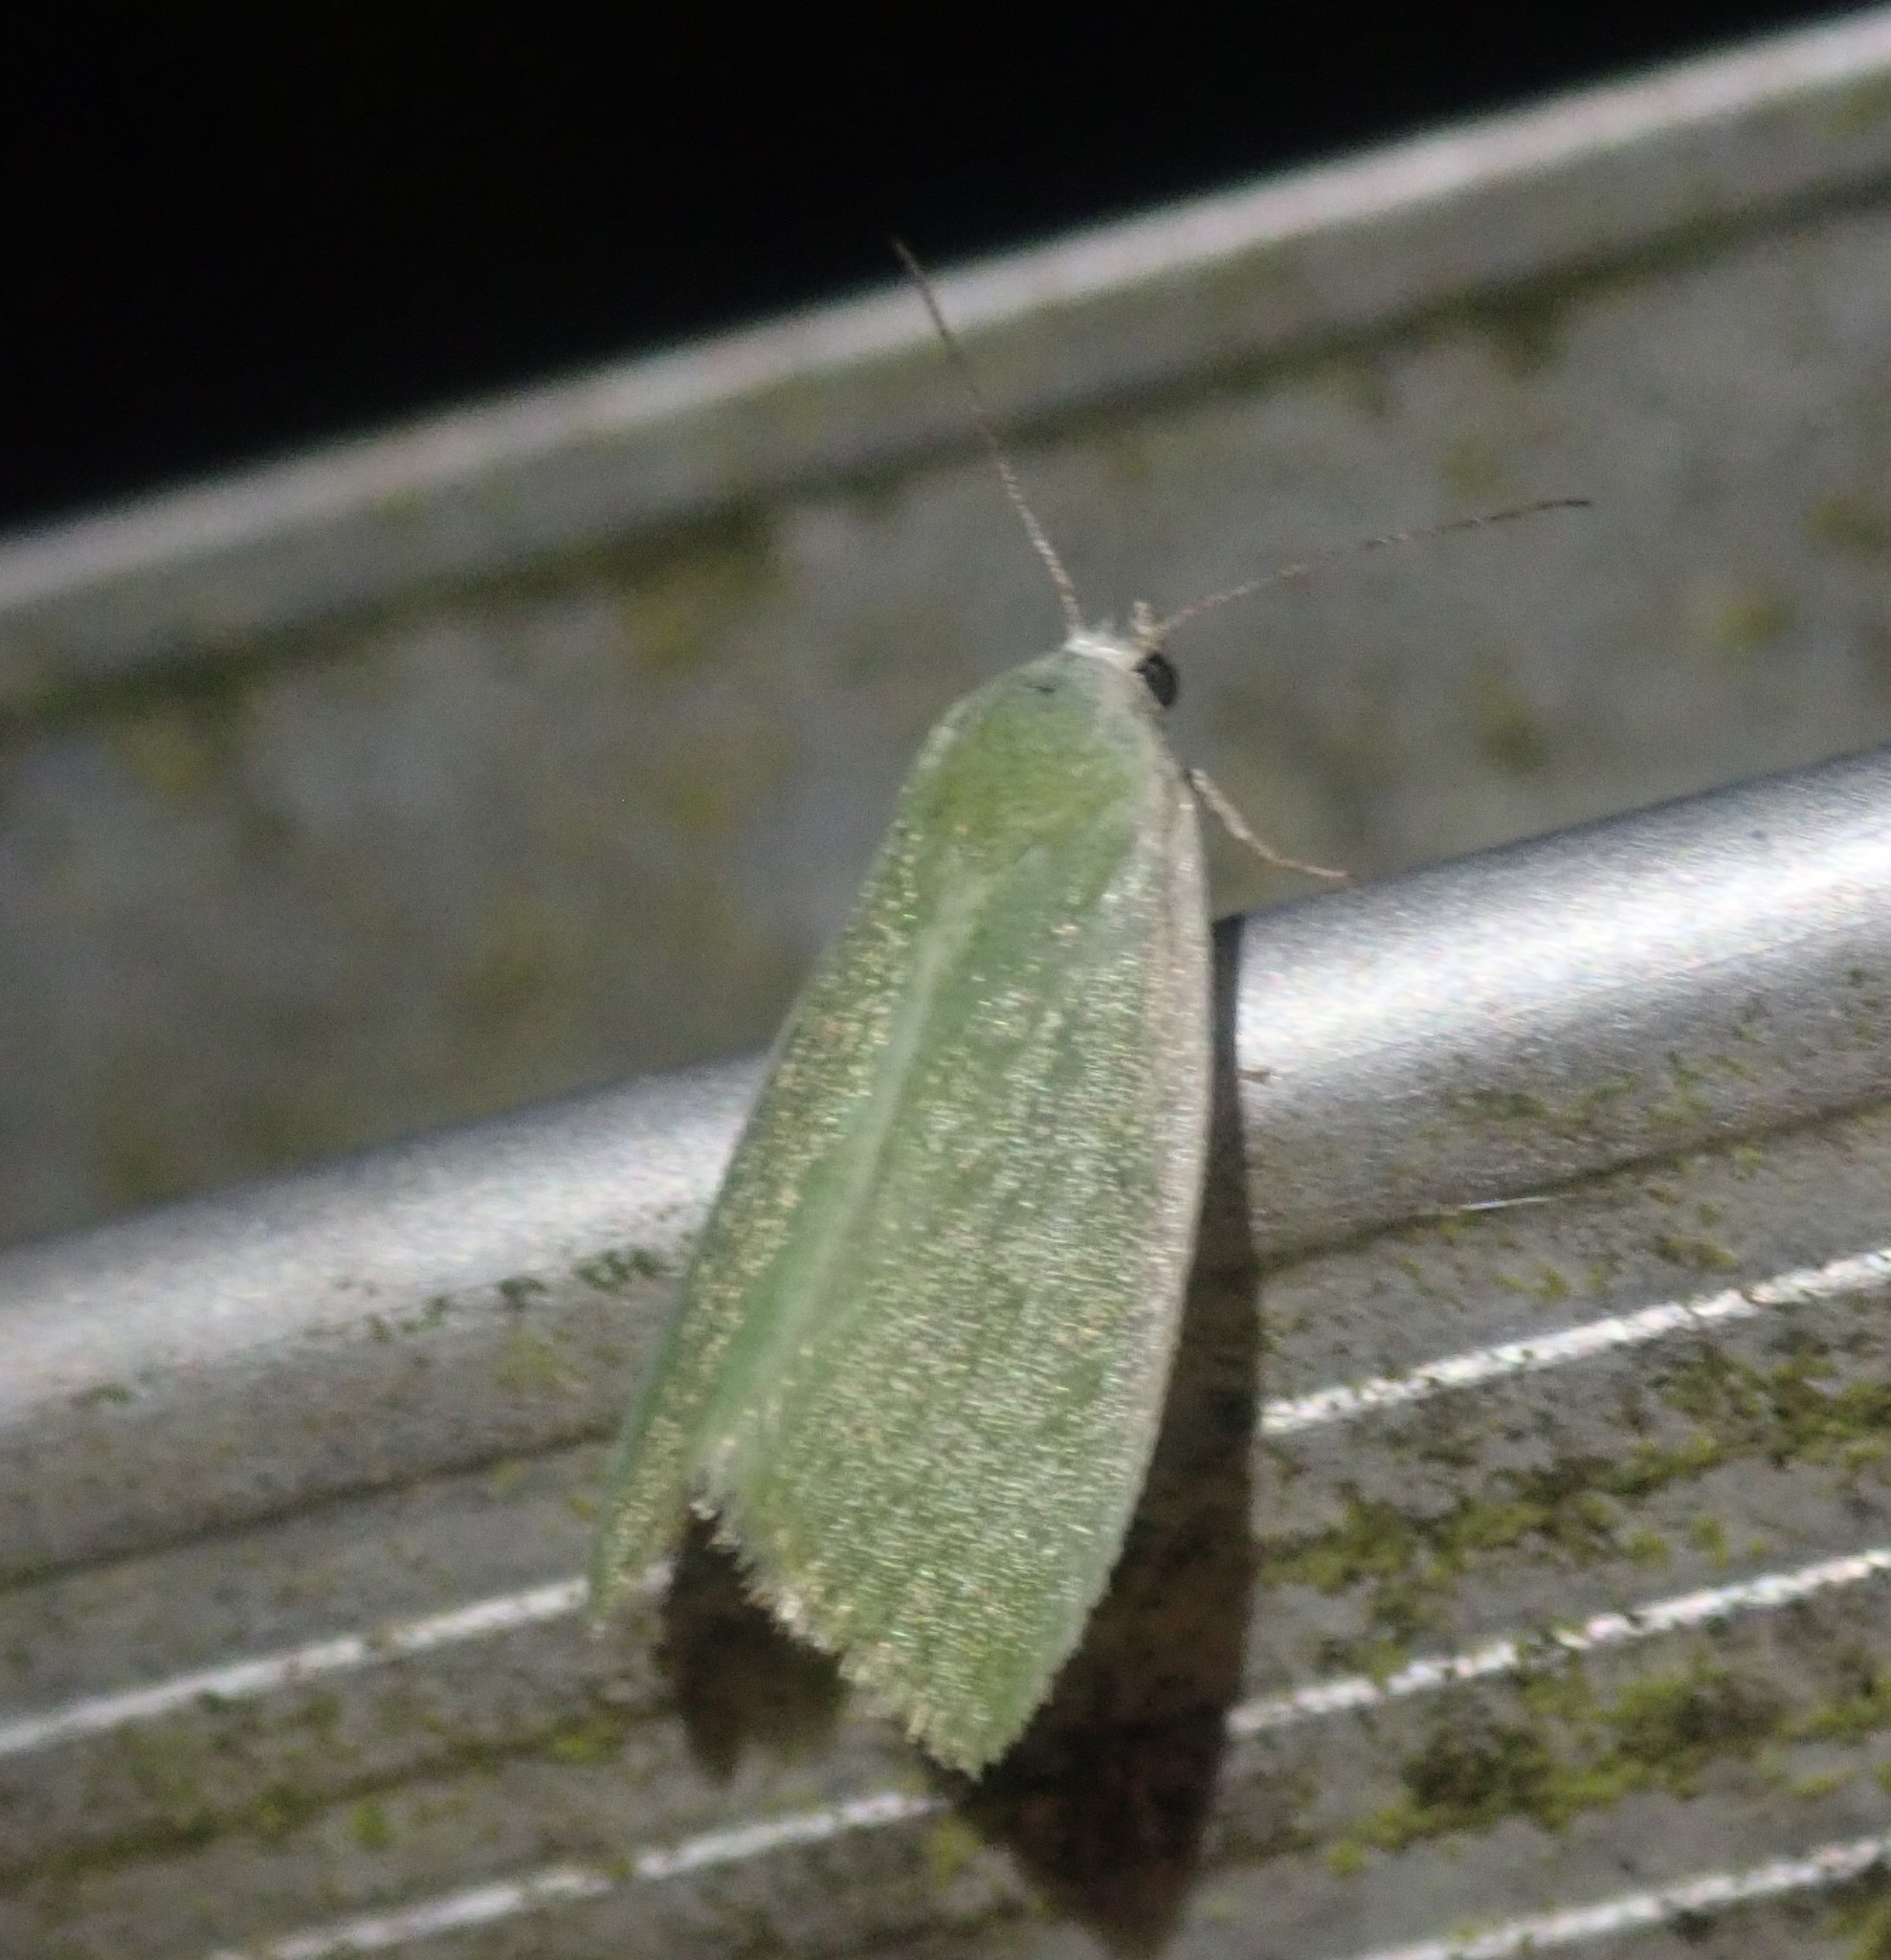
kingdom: Animalia
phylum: Arthropoda
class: Insecta
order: Lepidoptera
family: Nolidae
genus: Earias
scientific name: Earias clorana
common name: Cream-bordered green pea
